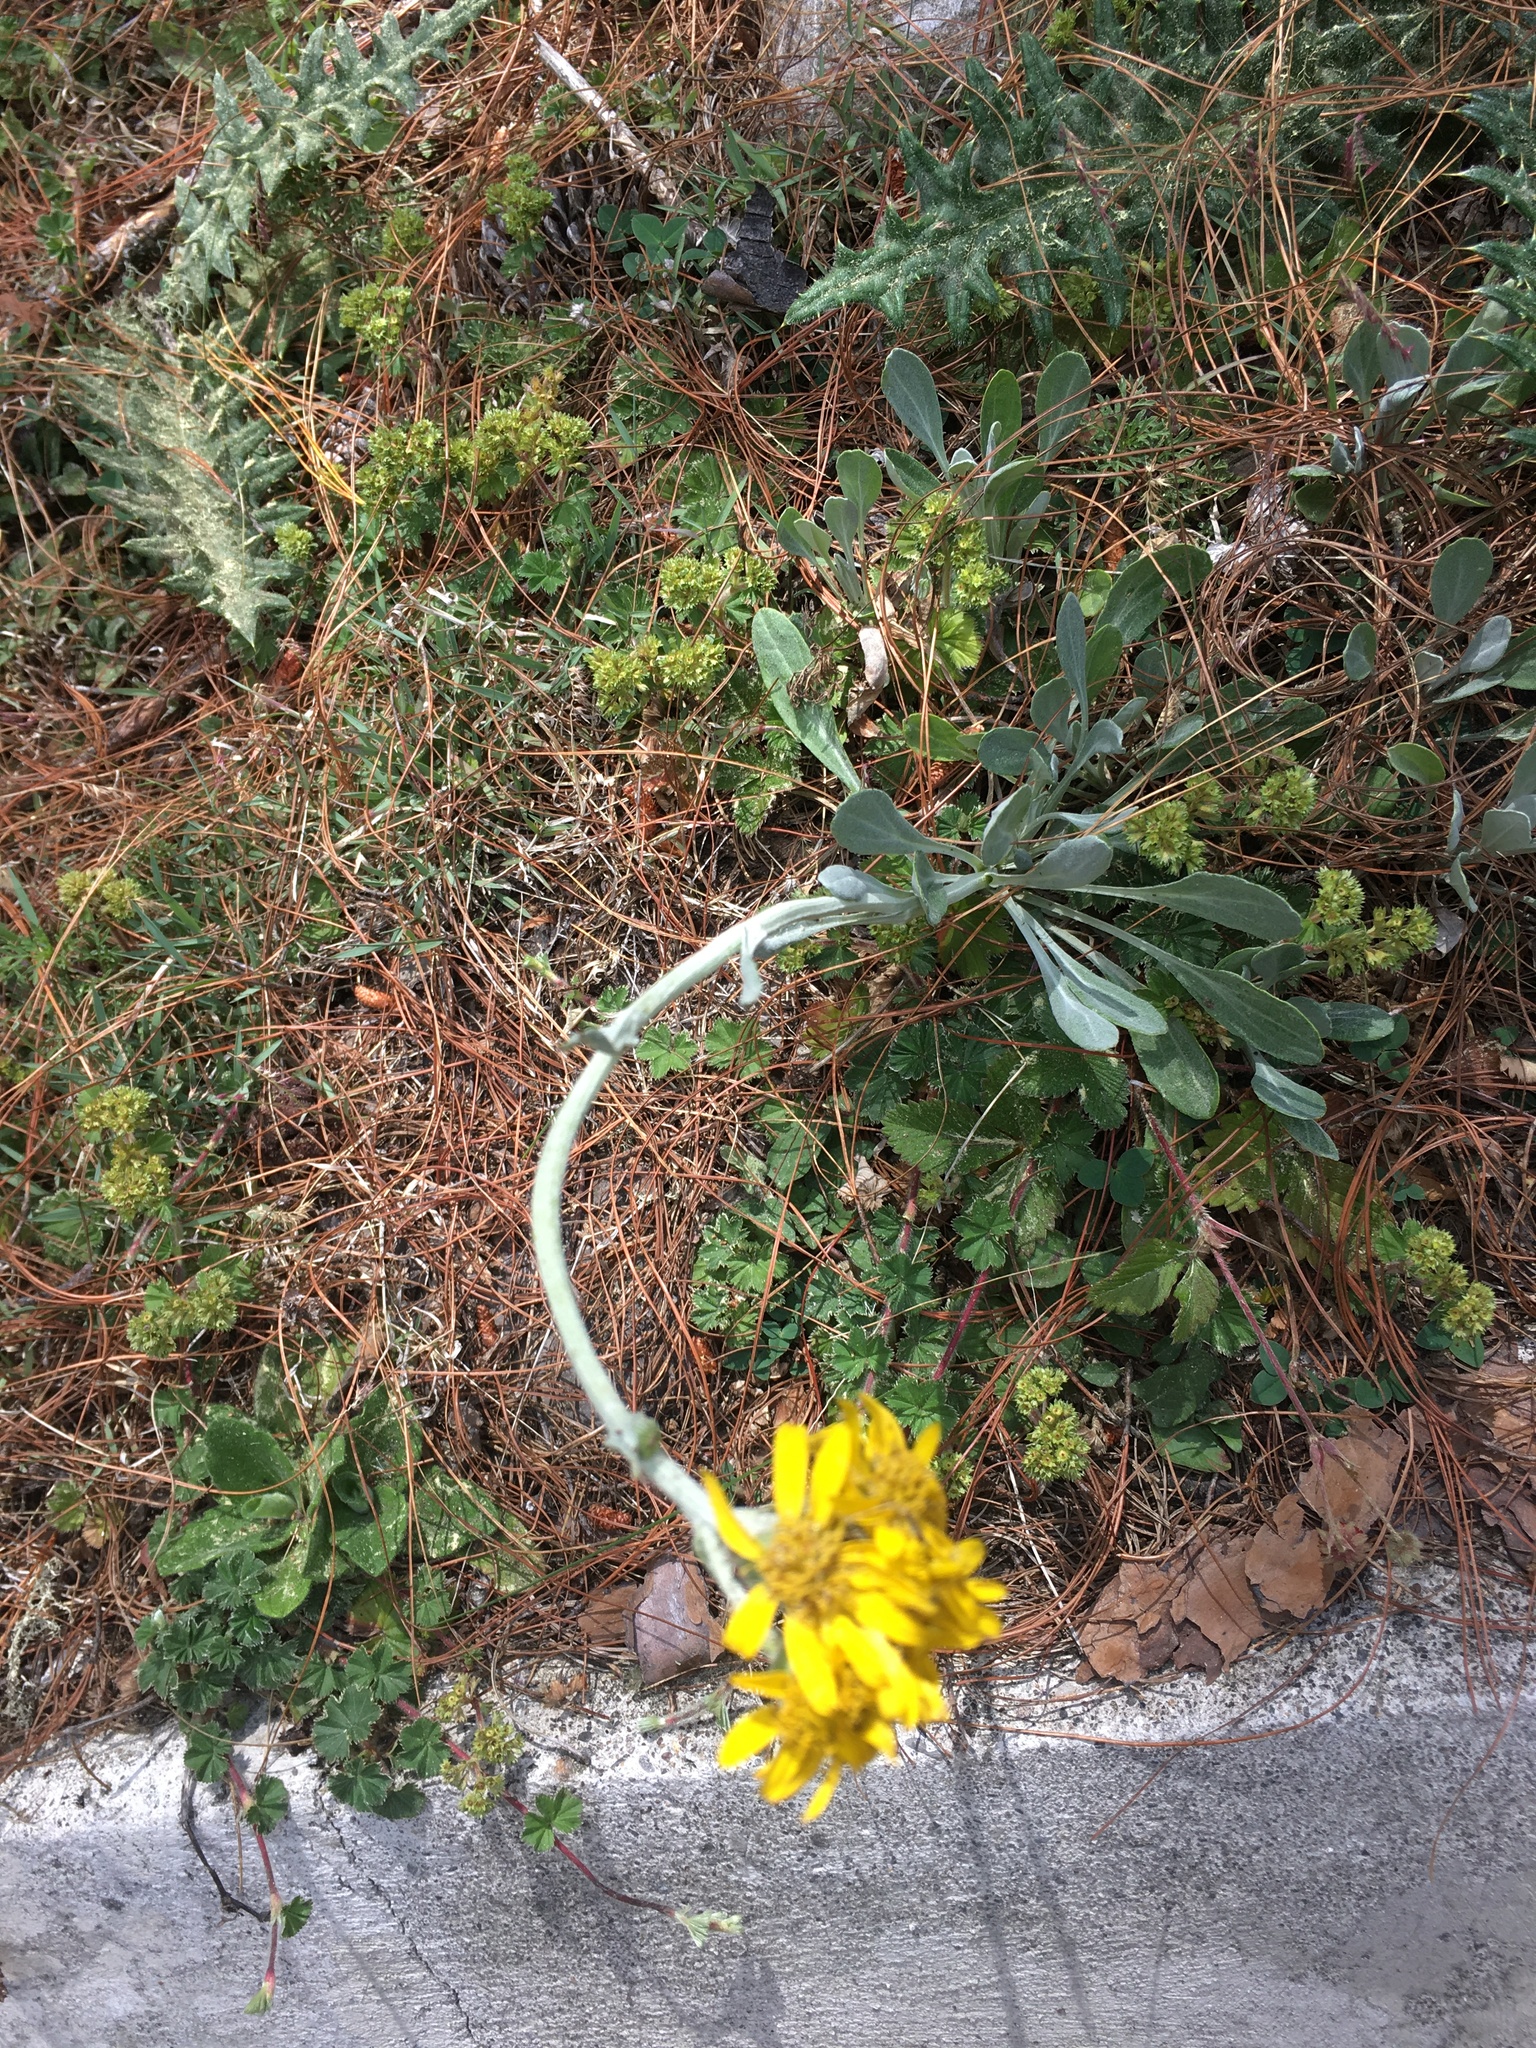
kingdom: Plantae
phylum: Tracheophyta
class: Magnoliopsida
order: Asterales
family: Asteraceae
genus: Packera
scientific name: Packera bellidifolia
